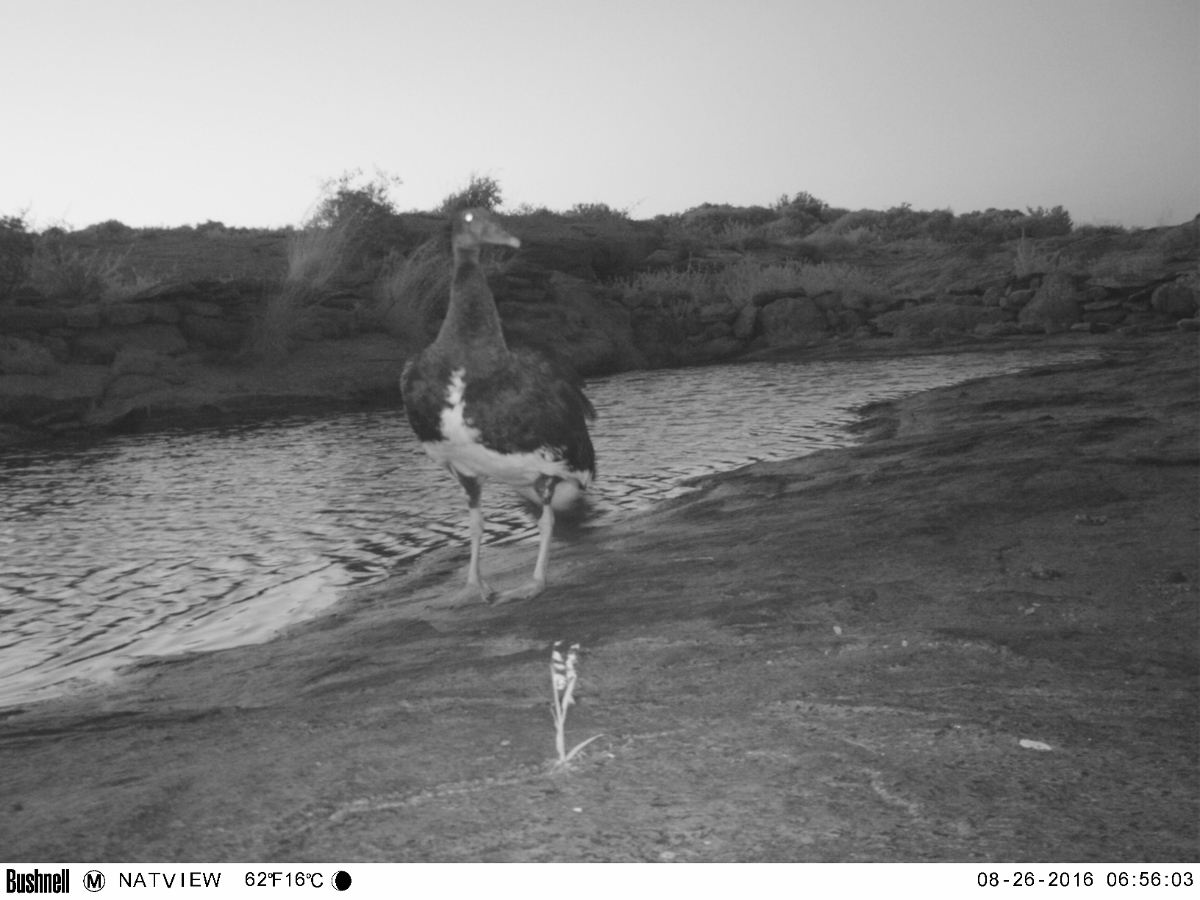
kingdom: Animalia
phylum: Chordata
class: Aves
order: Anseriformes
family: Anatidae
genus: Plectropterus
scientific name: Plectropterus gambensis
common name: Spur-winged goose
